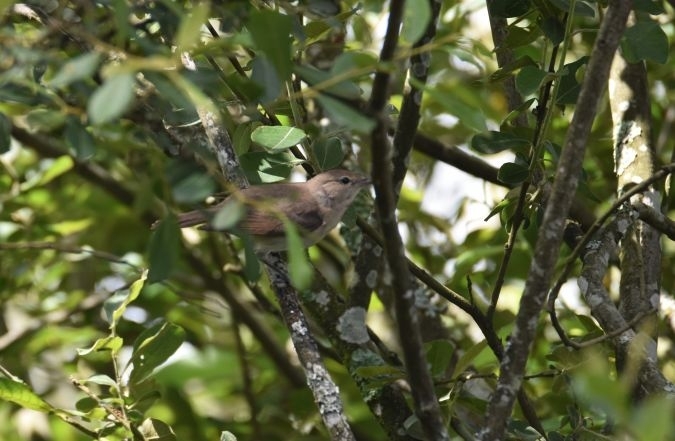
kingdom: Animalia
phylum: Chordata
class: Aves
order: Passeriformes
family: Sylviidae
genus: Sylvia
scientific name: Sylvia borin
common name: Garden warbler
